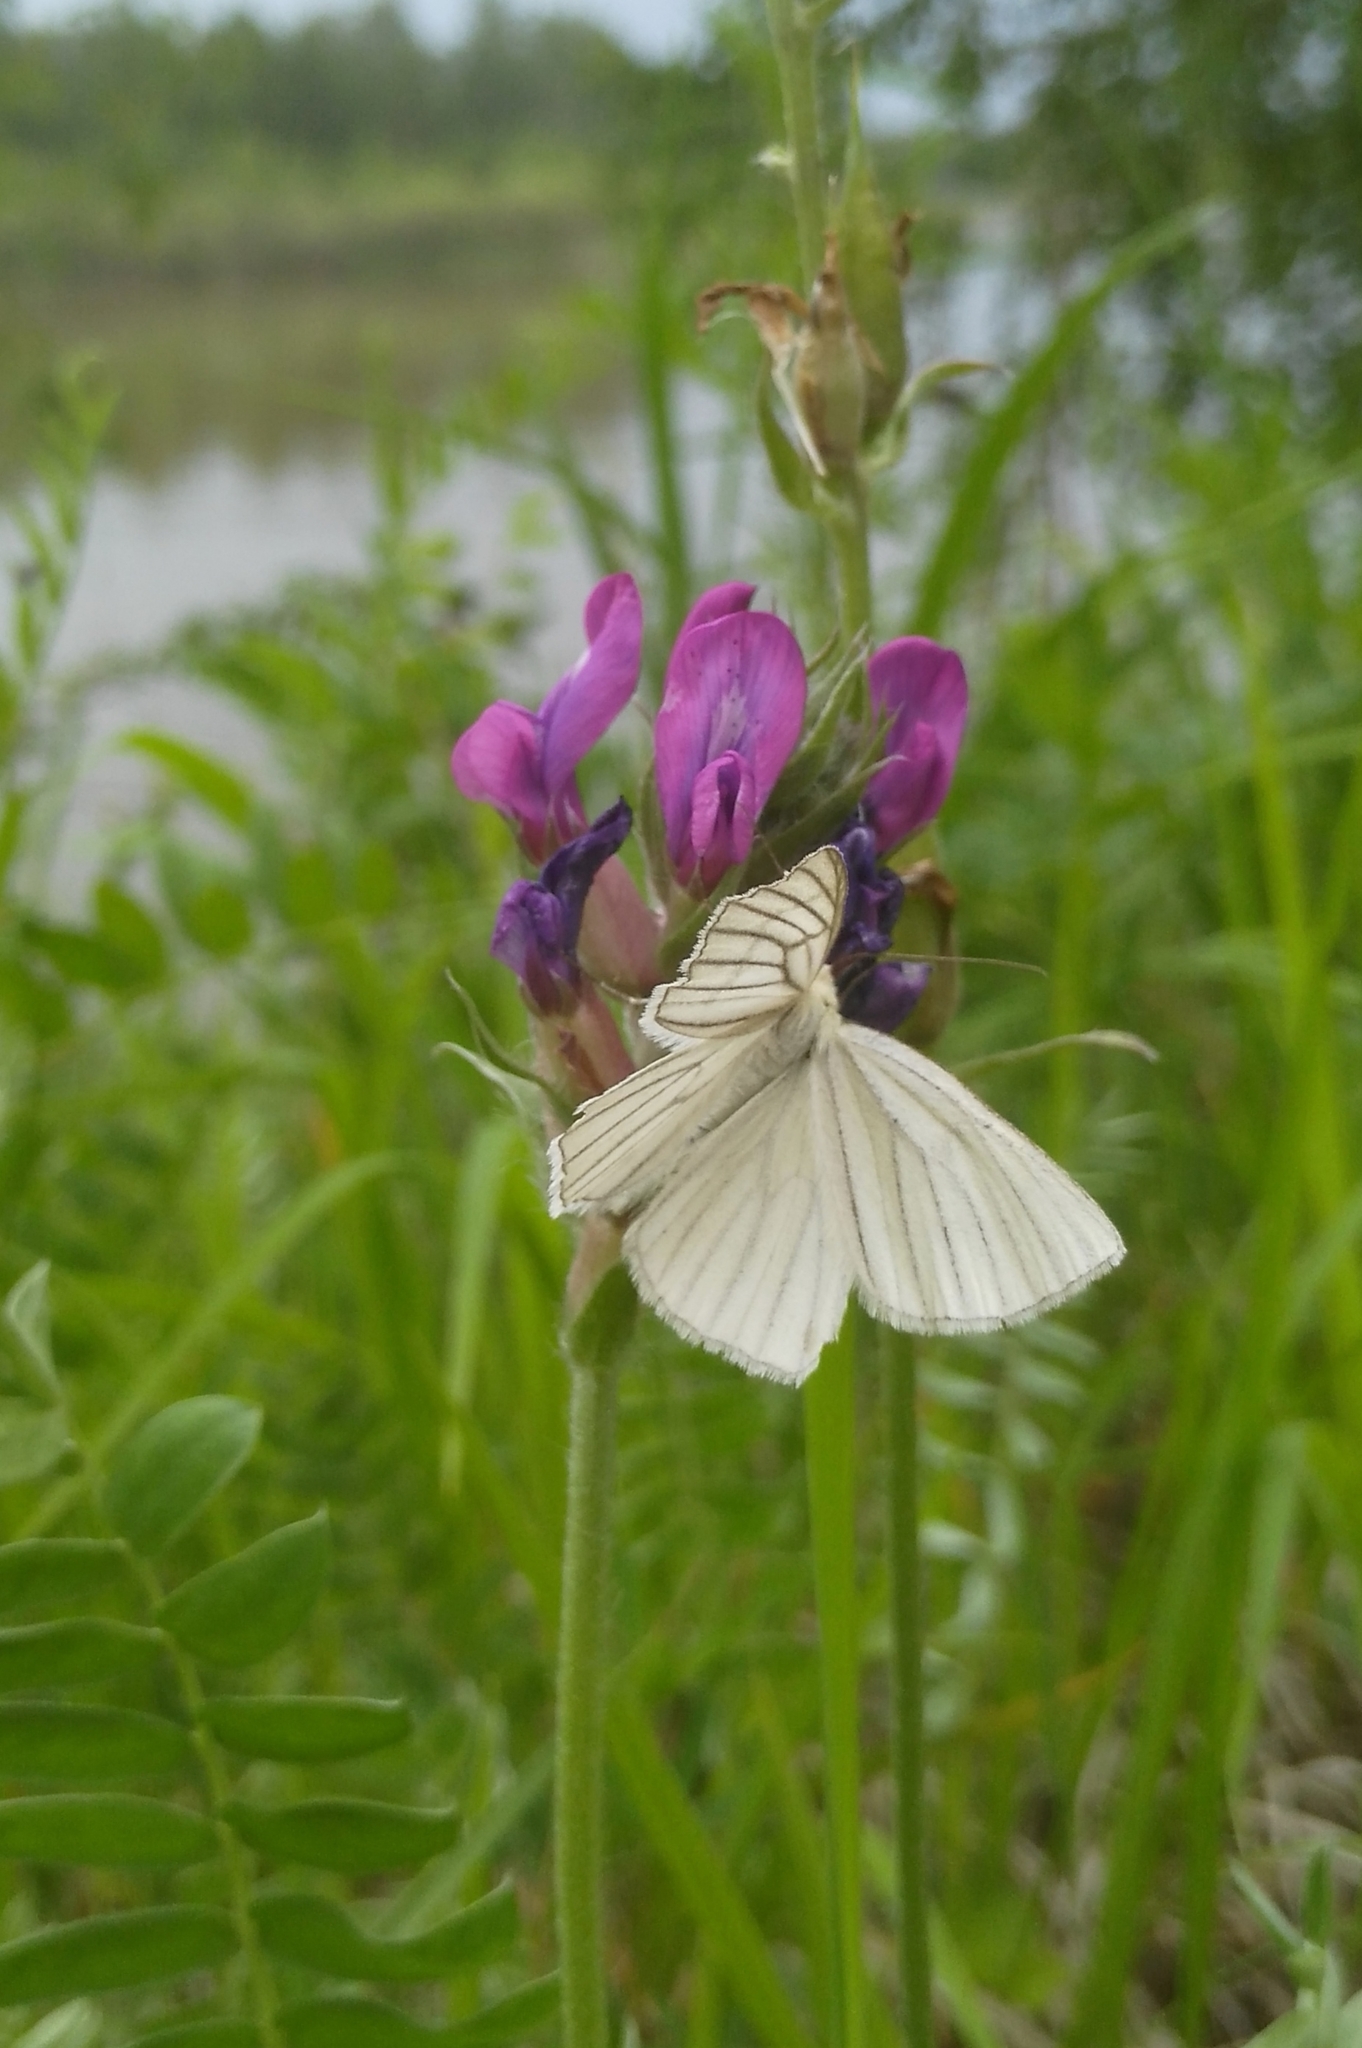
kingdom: Animalia
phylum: Arthropoda
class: Insecta
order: Lepidoptera
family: Geometridae
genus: Siona
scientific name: Siona lineata
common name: Black-veined moth
